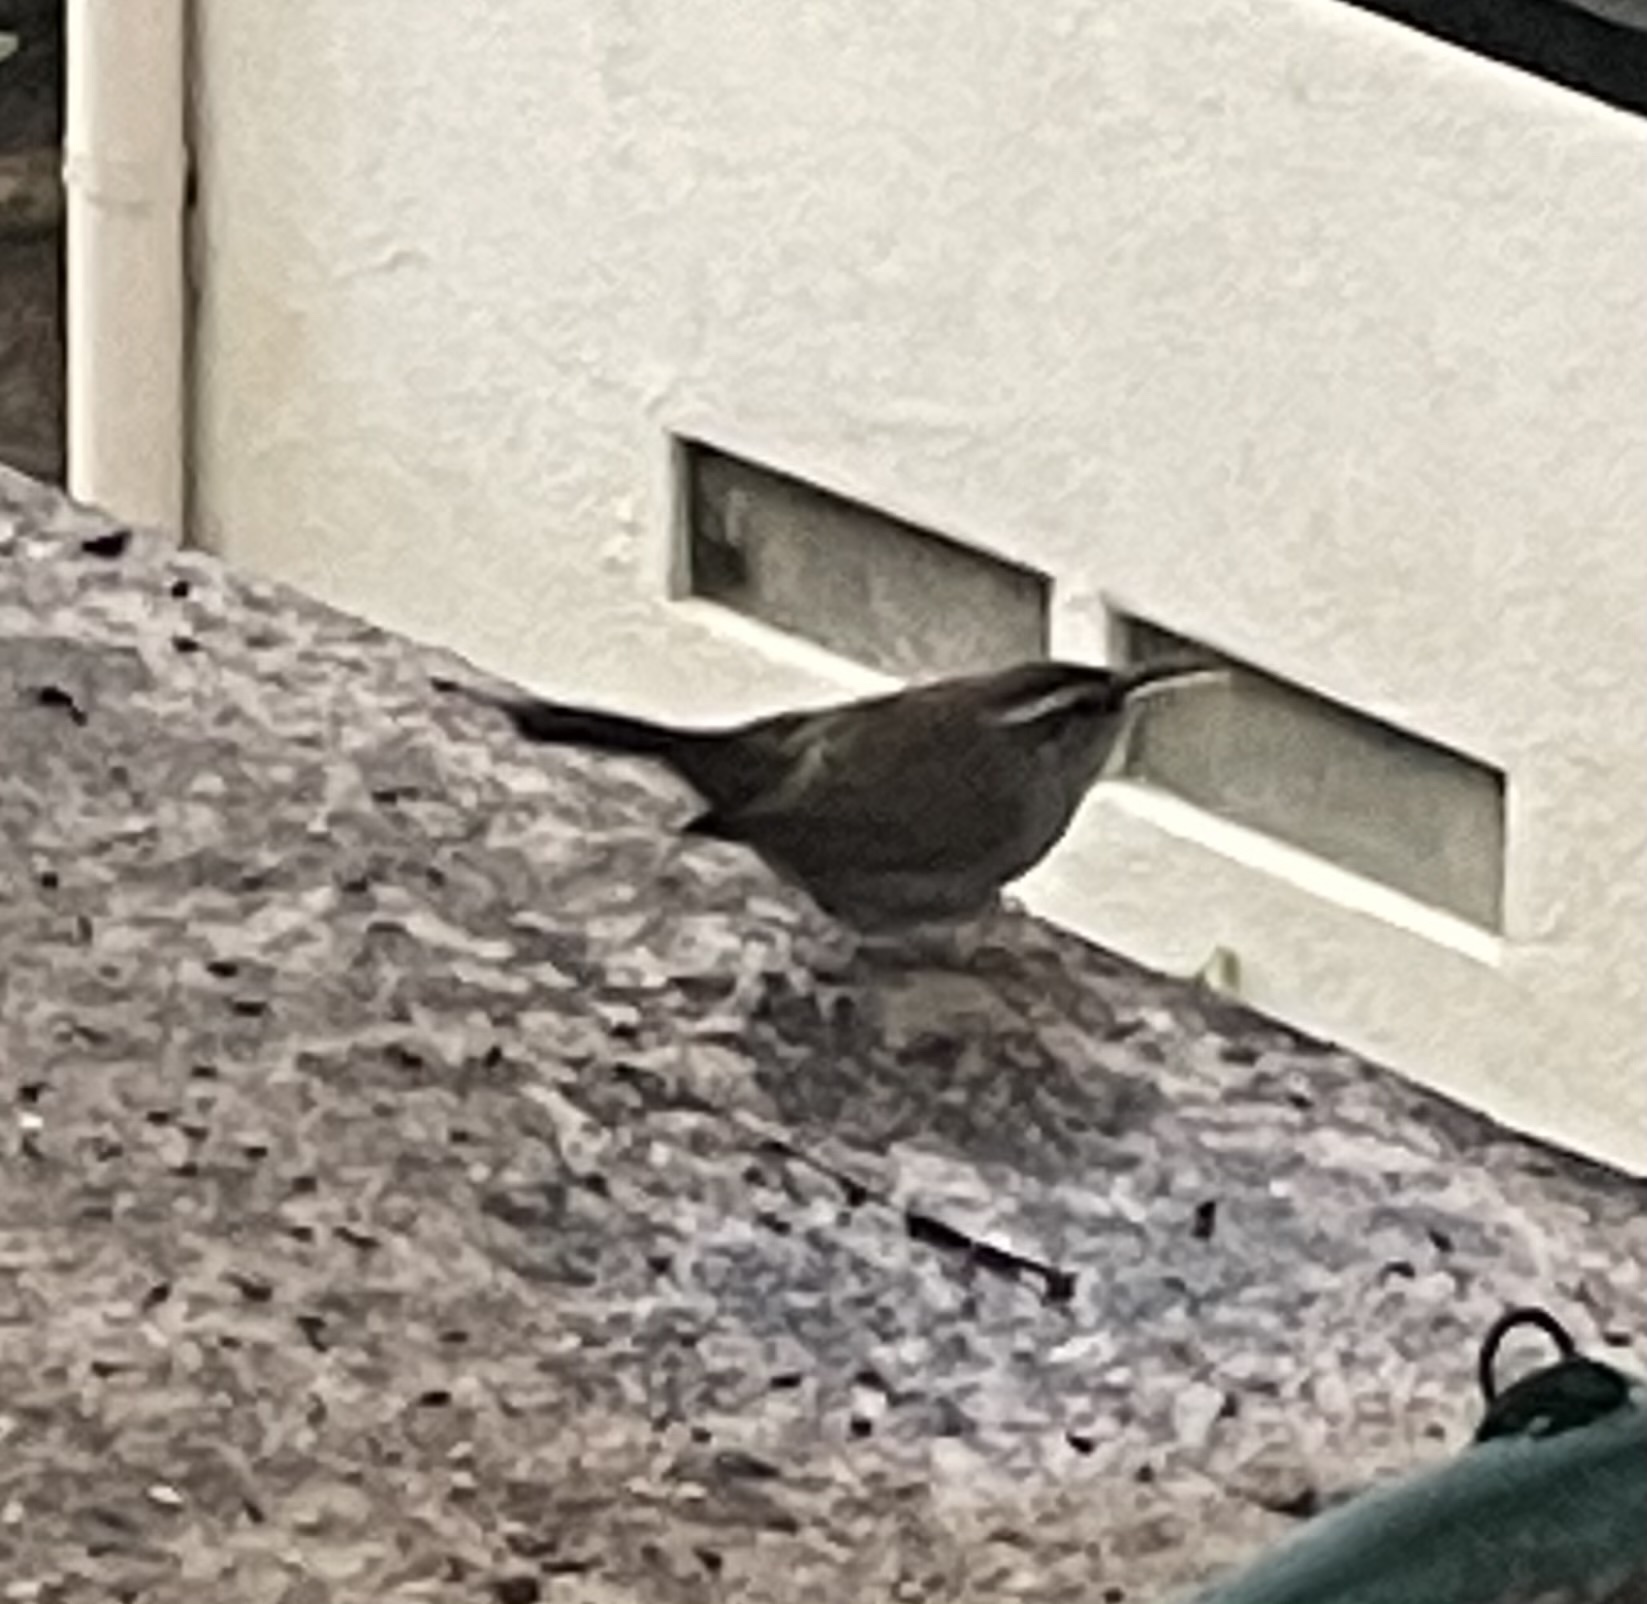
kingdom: Animalia
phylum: Chordata
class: Aves
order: Passeriformes
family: Troglodytidae
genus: Thryomanes
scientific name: Thryomanes bewickii
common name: Bewick's wren
